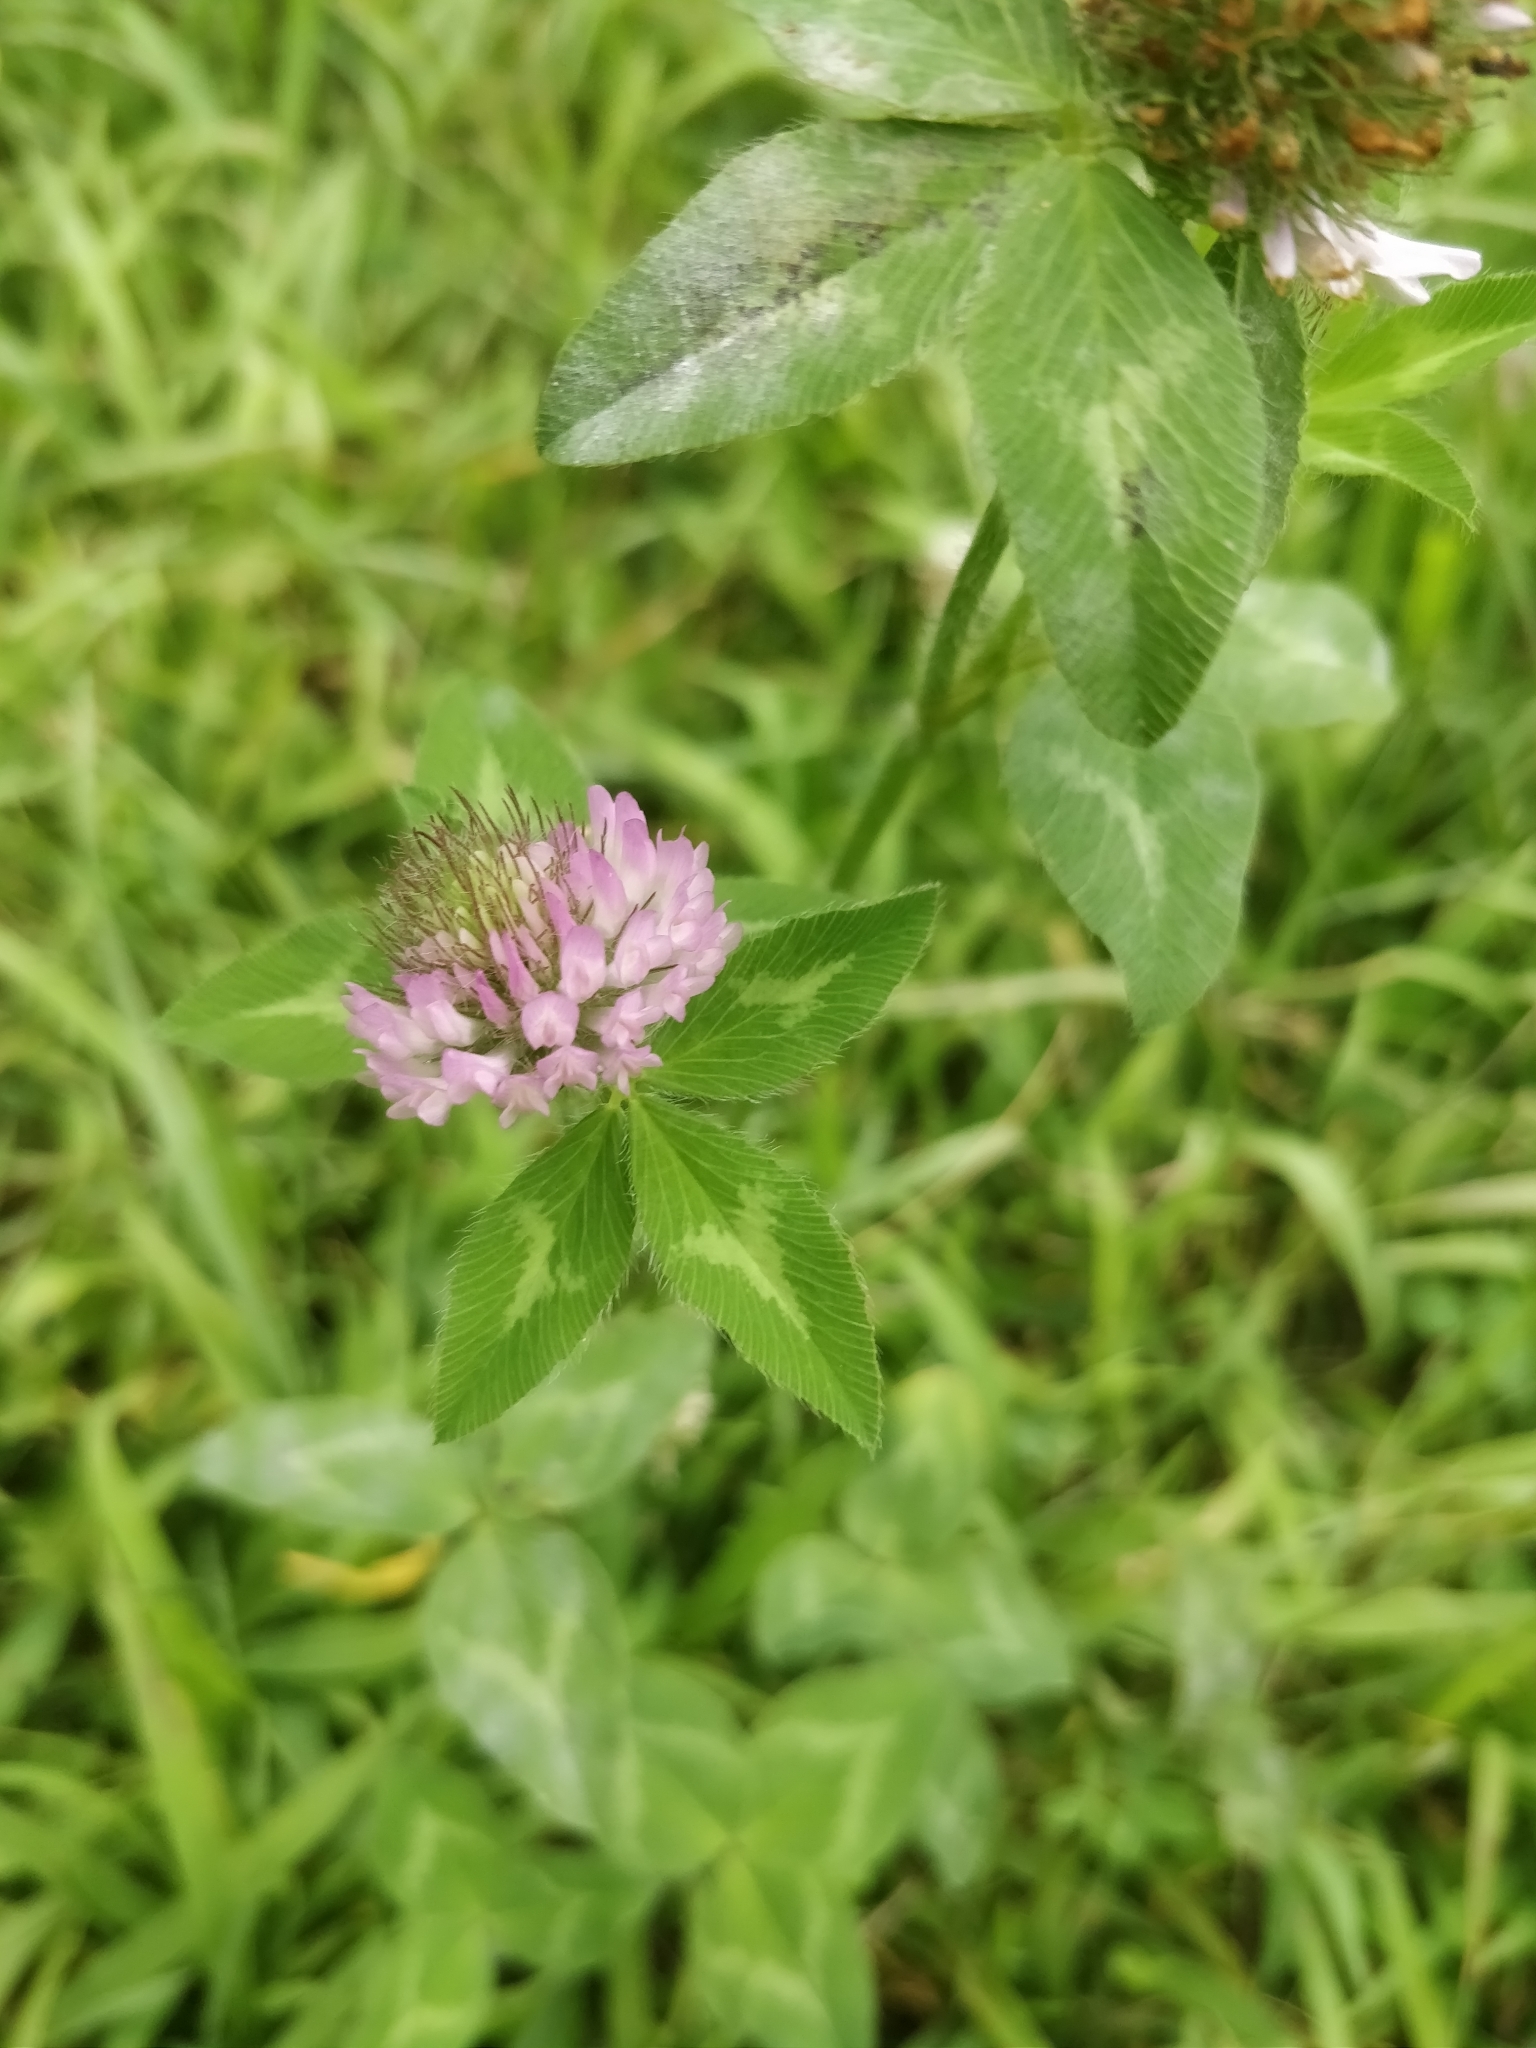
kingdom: Plantae
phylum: Tracheophyta
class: Magnoliopsida
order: Fabales
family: Fabaceae
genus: Trifolium
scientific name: Trifolium pratense
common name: Red clover
